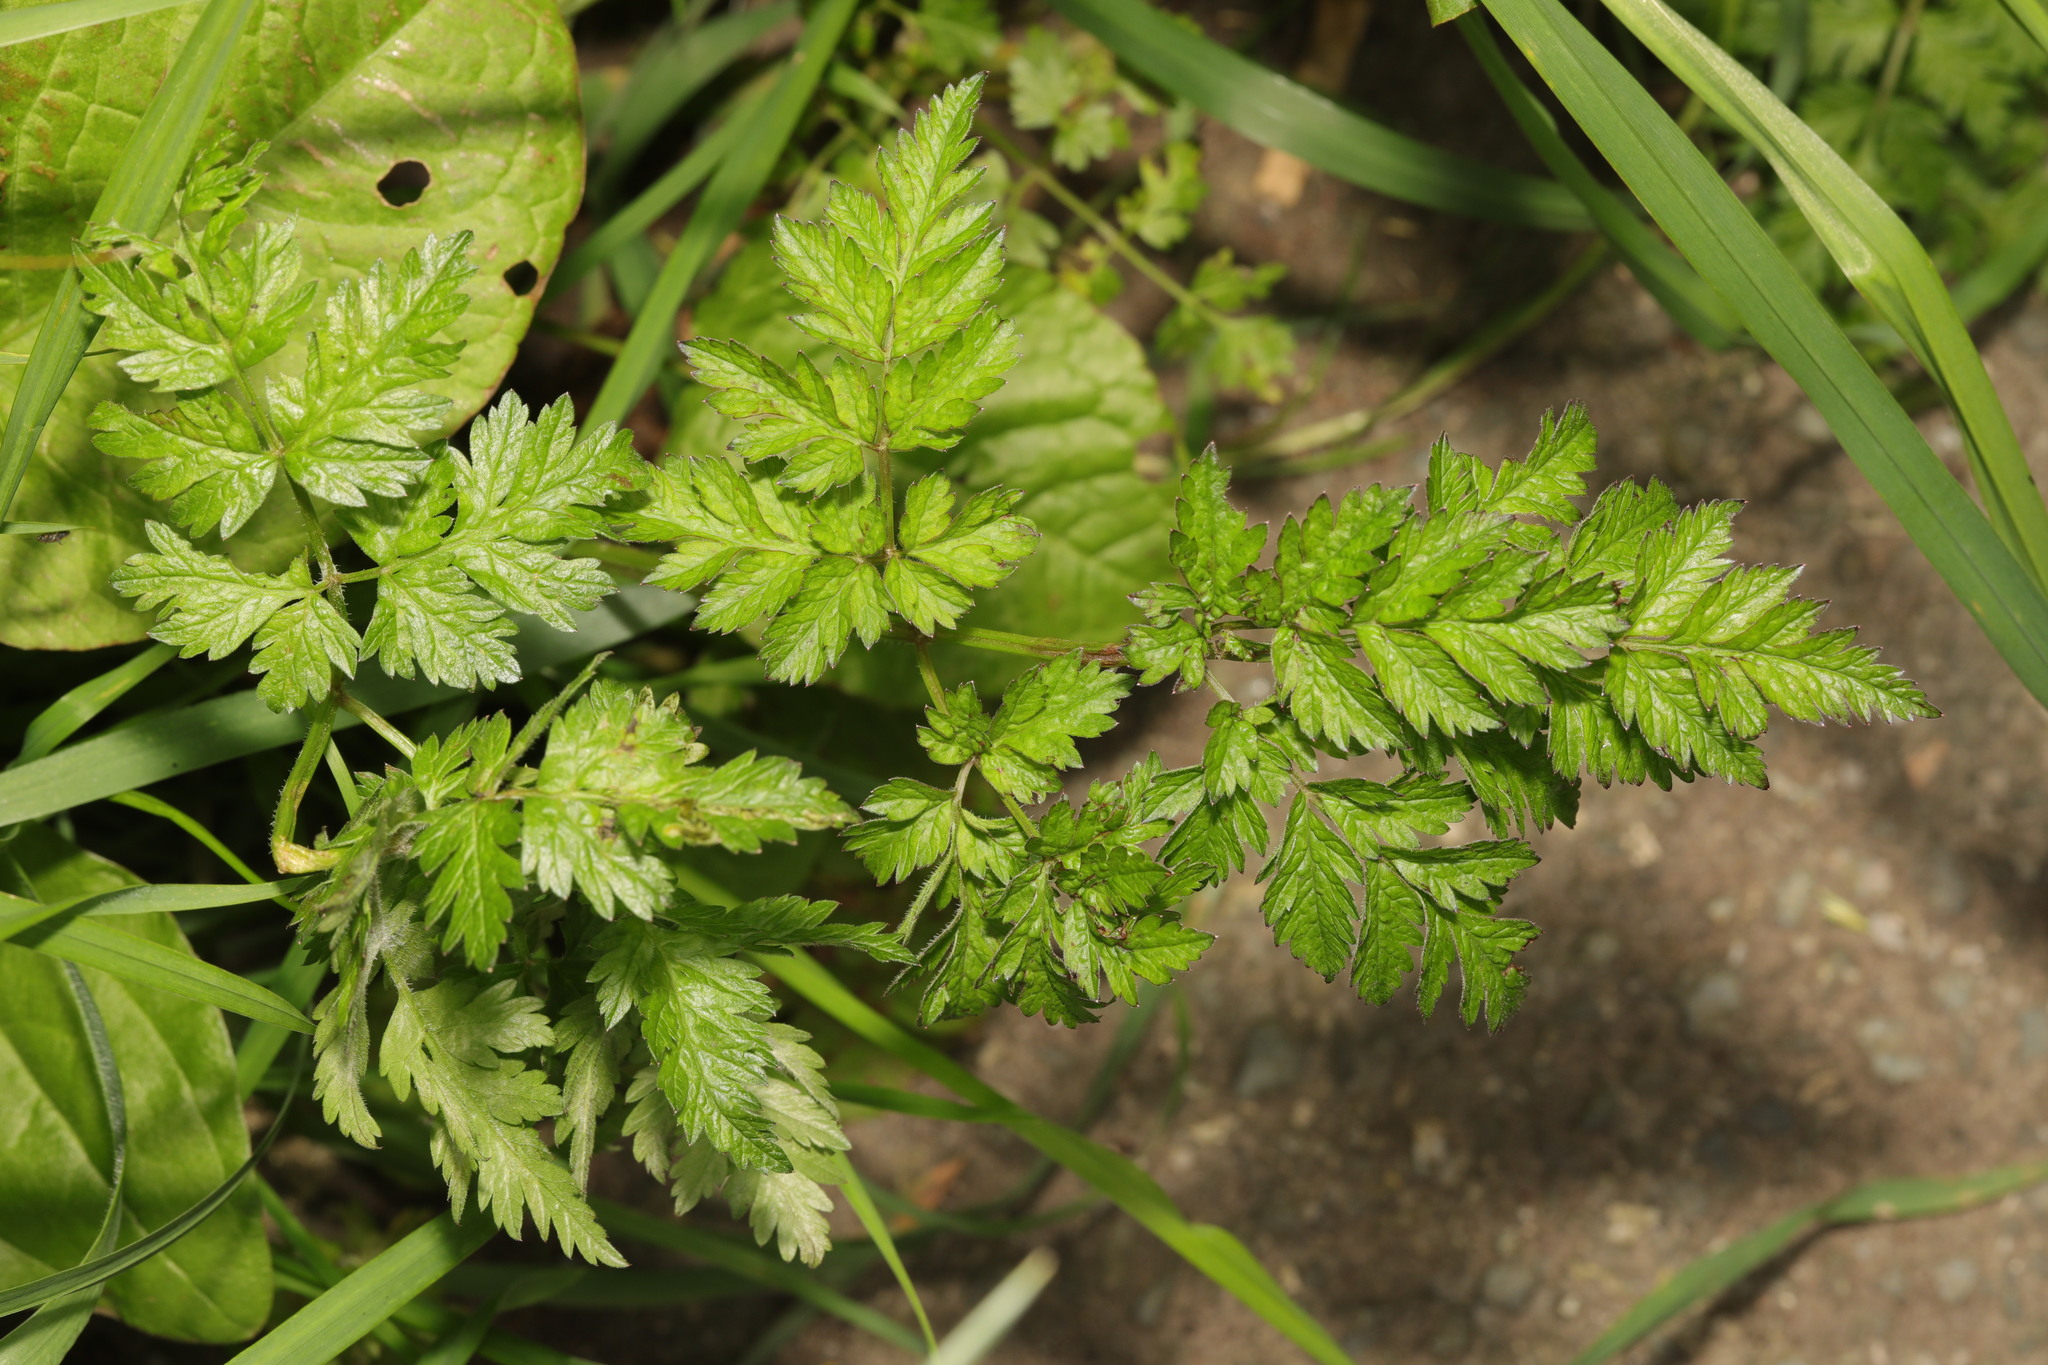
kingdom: Plantae
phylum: Tracheophyta
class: Magnoliopsida
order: Apiales
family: Apiaceae
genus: Anthriscus
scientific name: Anthriscus sylvestris
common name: Cow parsley
